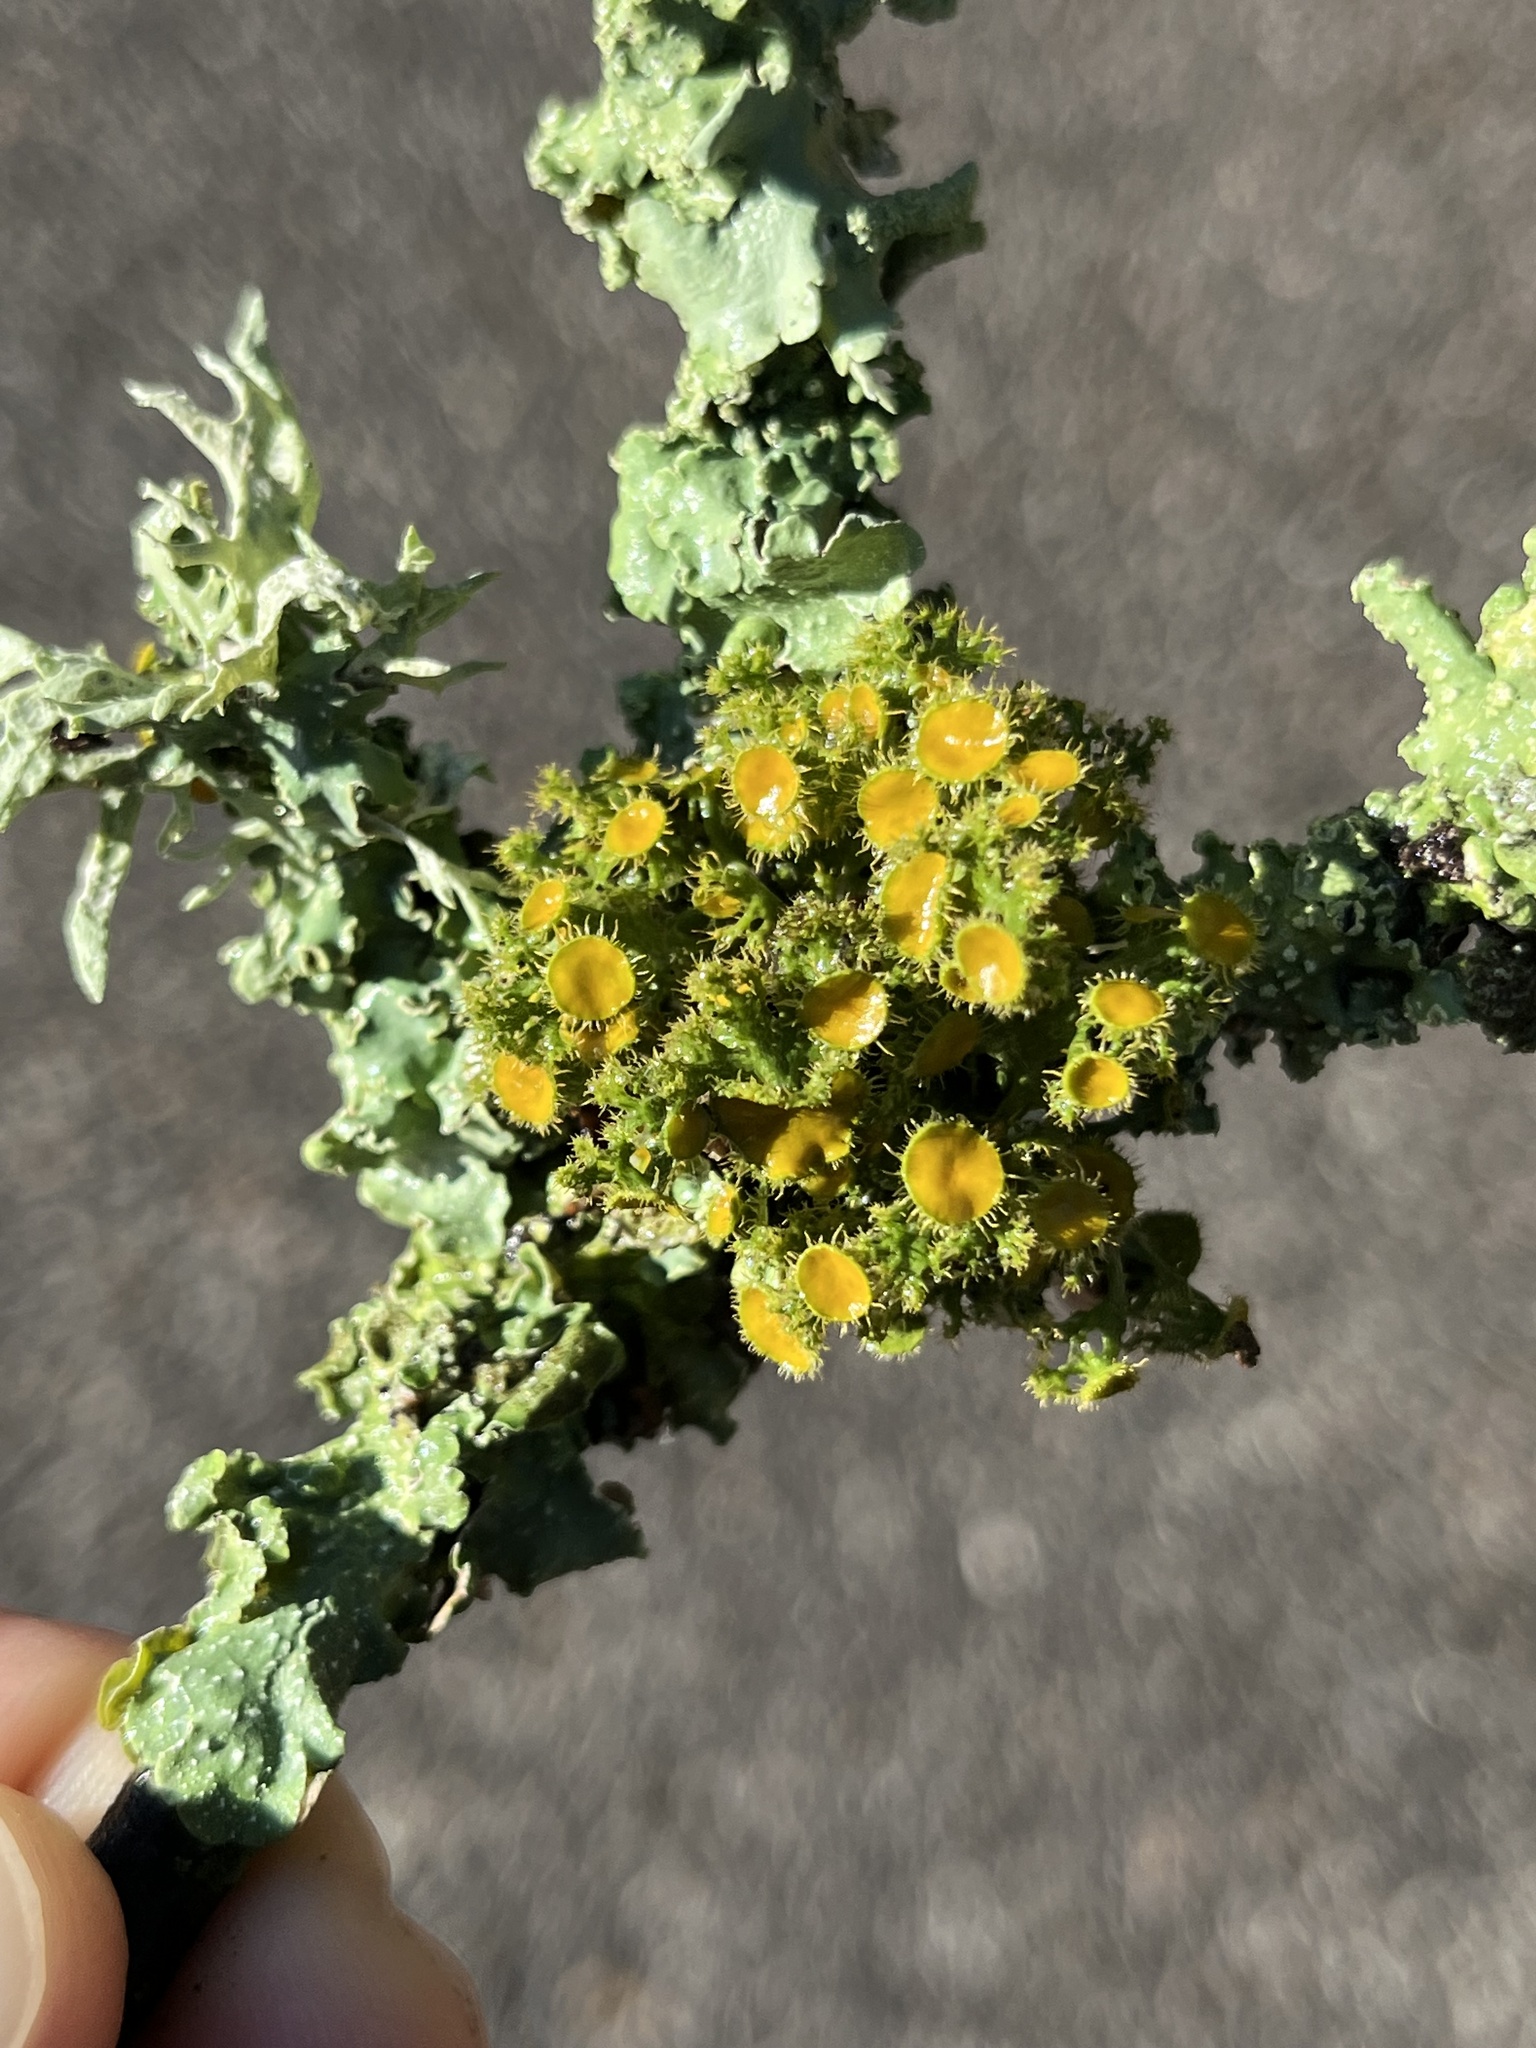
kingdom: Fungi
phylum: Ascomycota
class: Lecanoromycetes
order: Teloschistales
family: Teloschistaceae
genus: Niorma
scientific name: Niorma chrysophthalma
